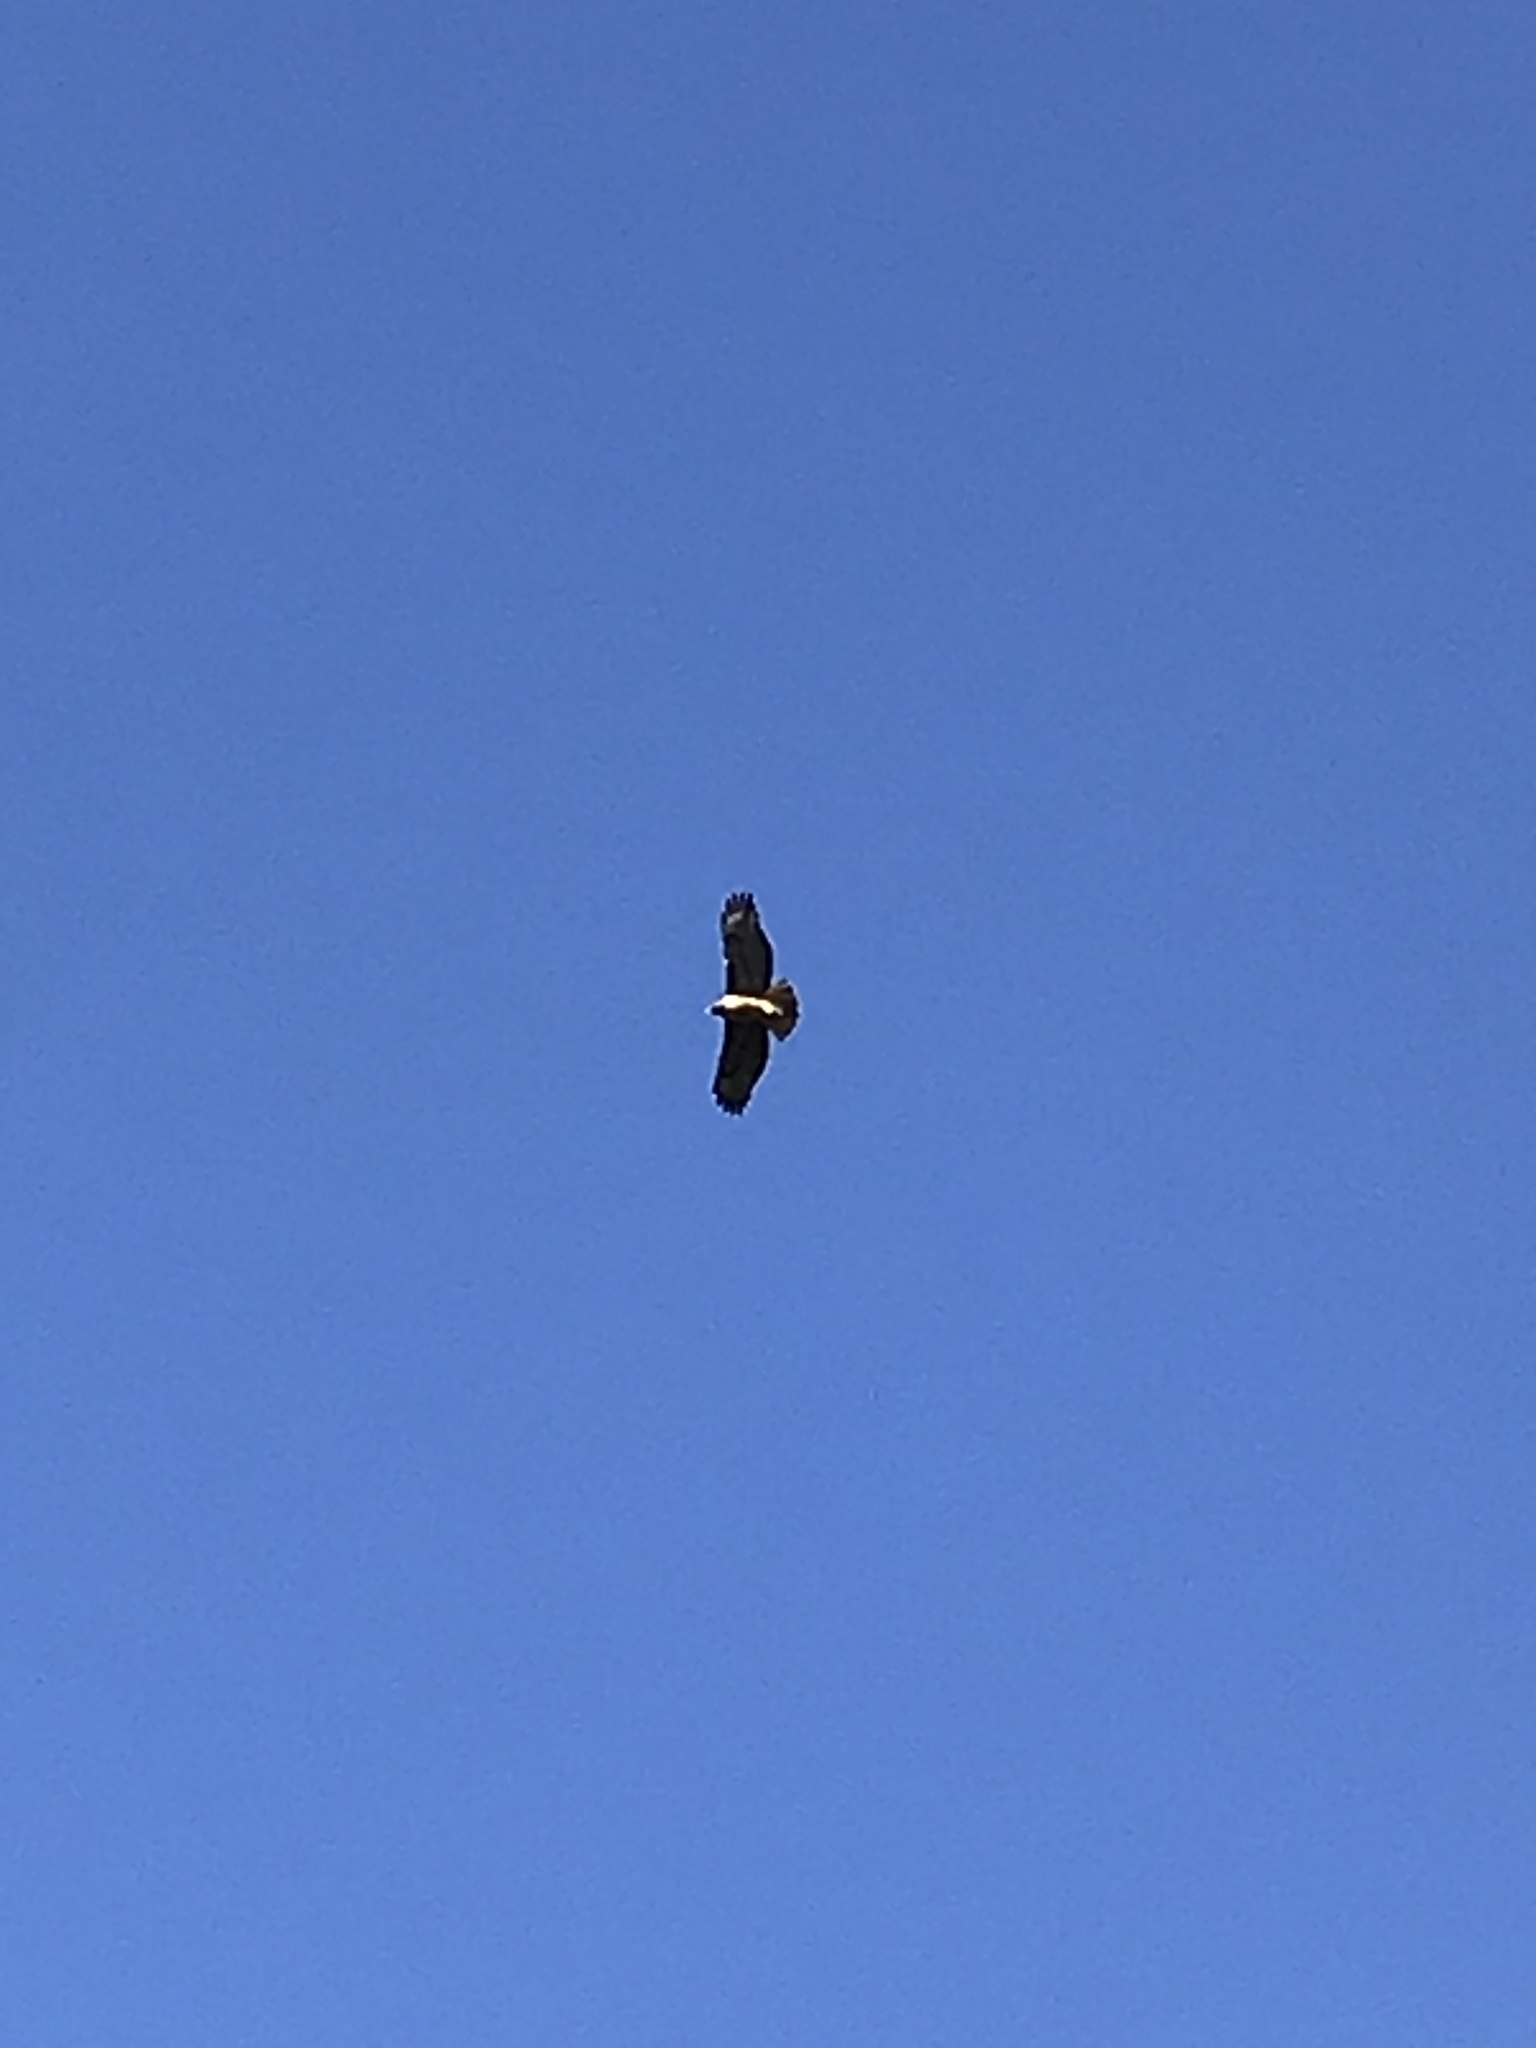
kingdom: Animalia
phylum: Chordata
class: Aves
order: Accipitriformes
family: Accipitridae
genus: Buteo
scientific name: Buteo jamaicensis
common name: Red-tailed hawk
